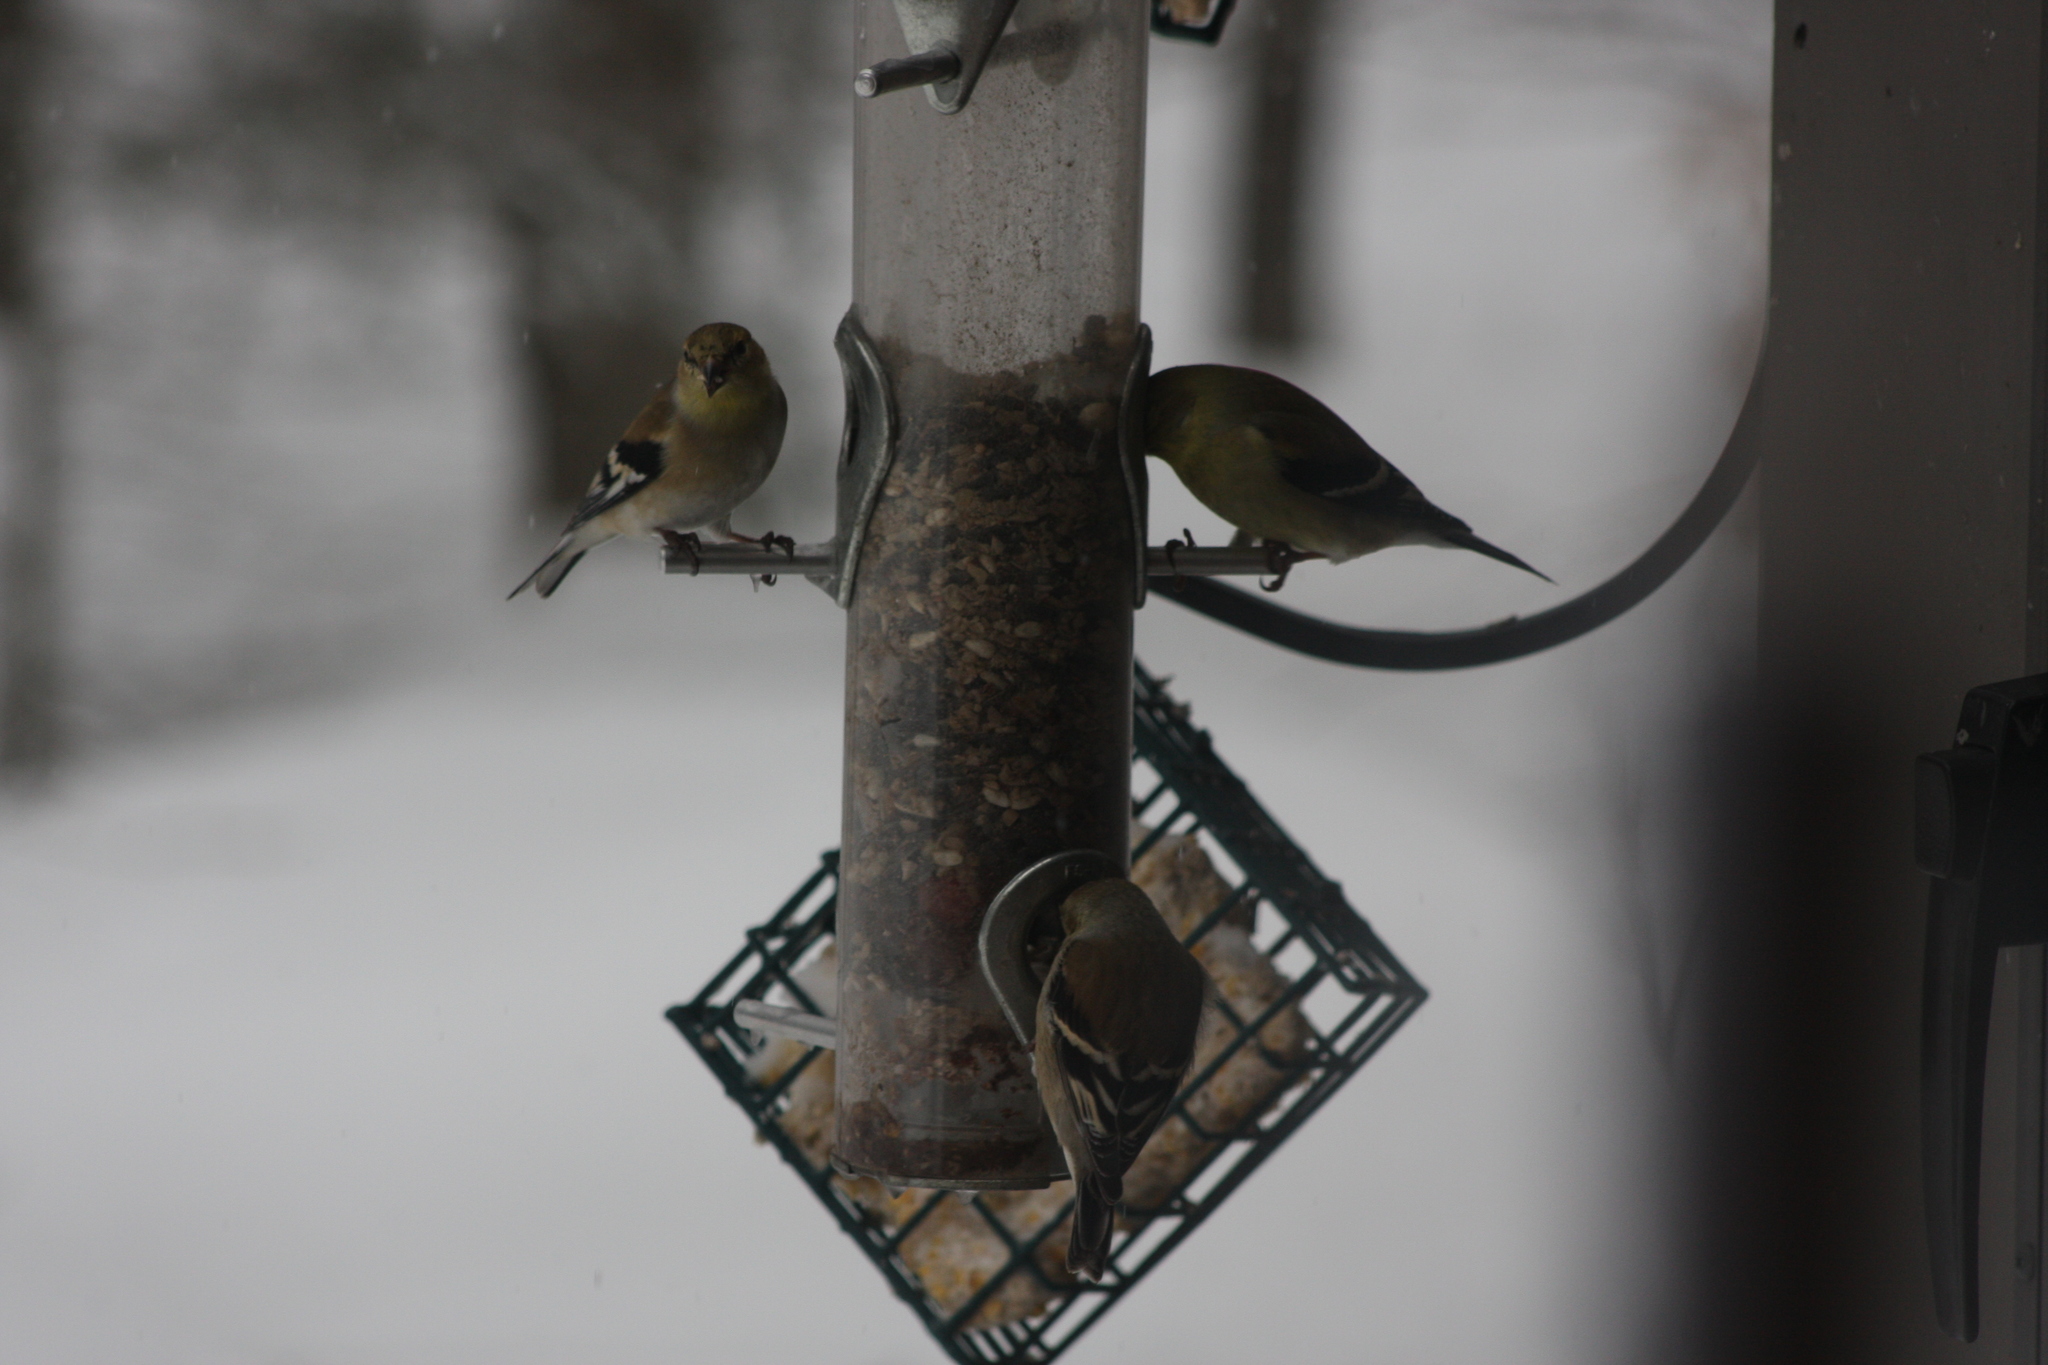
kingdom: Animalia
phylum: Chordata
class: Aves
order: Passeriformes
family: Fringillidae
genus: Spinus
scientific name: Spinus tristis
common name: American goldfinch
